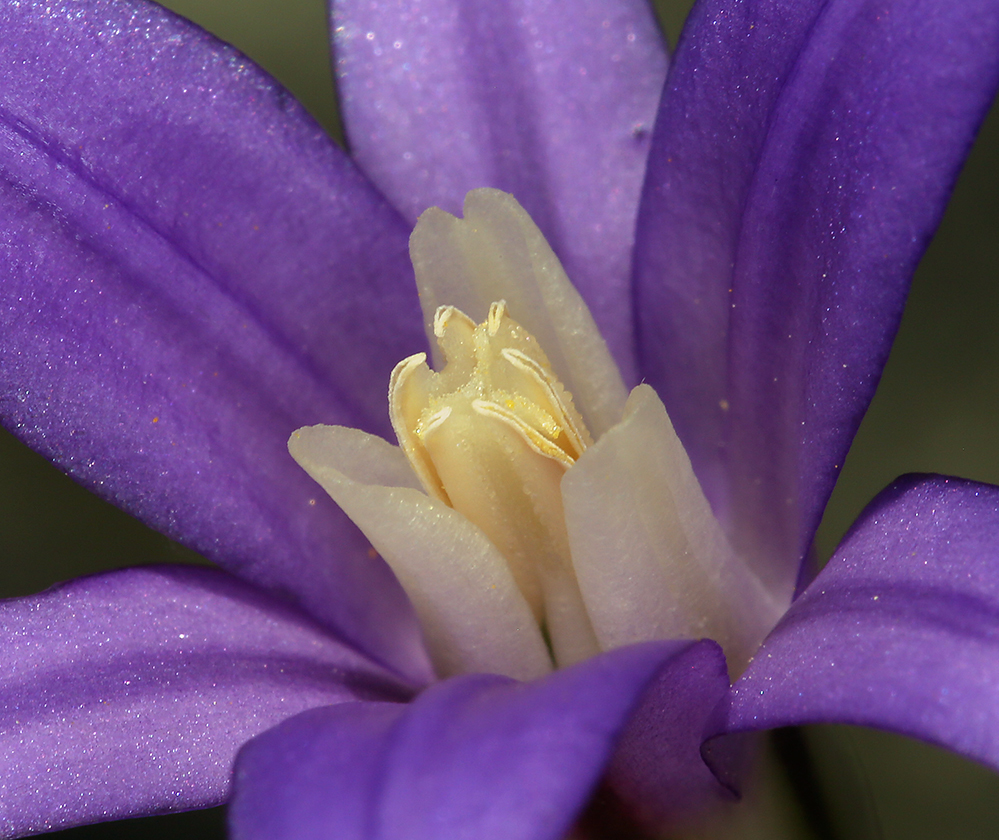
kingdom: Plantae
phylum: Tracheophyta
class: Liliopsida
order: Asparagales
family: Asparagaceae
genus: Brodiaea
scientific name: Brodiaea elegans
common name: Elegant cluster-lily
